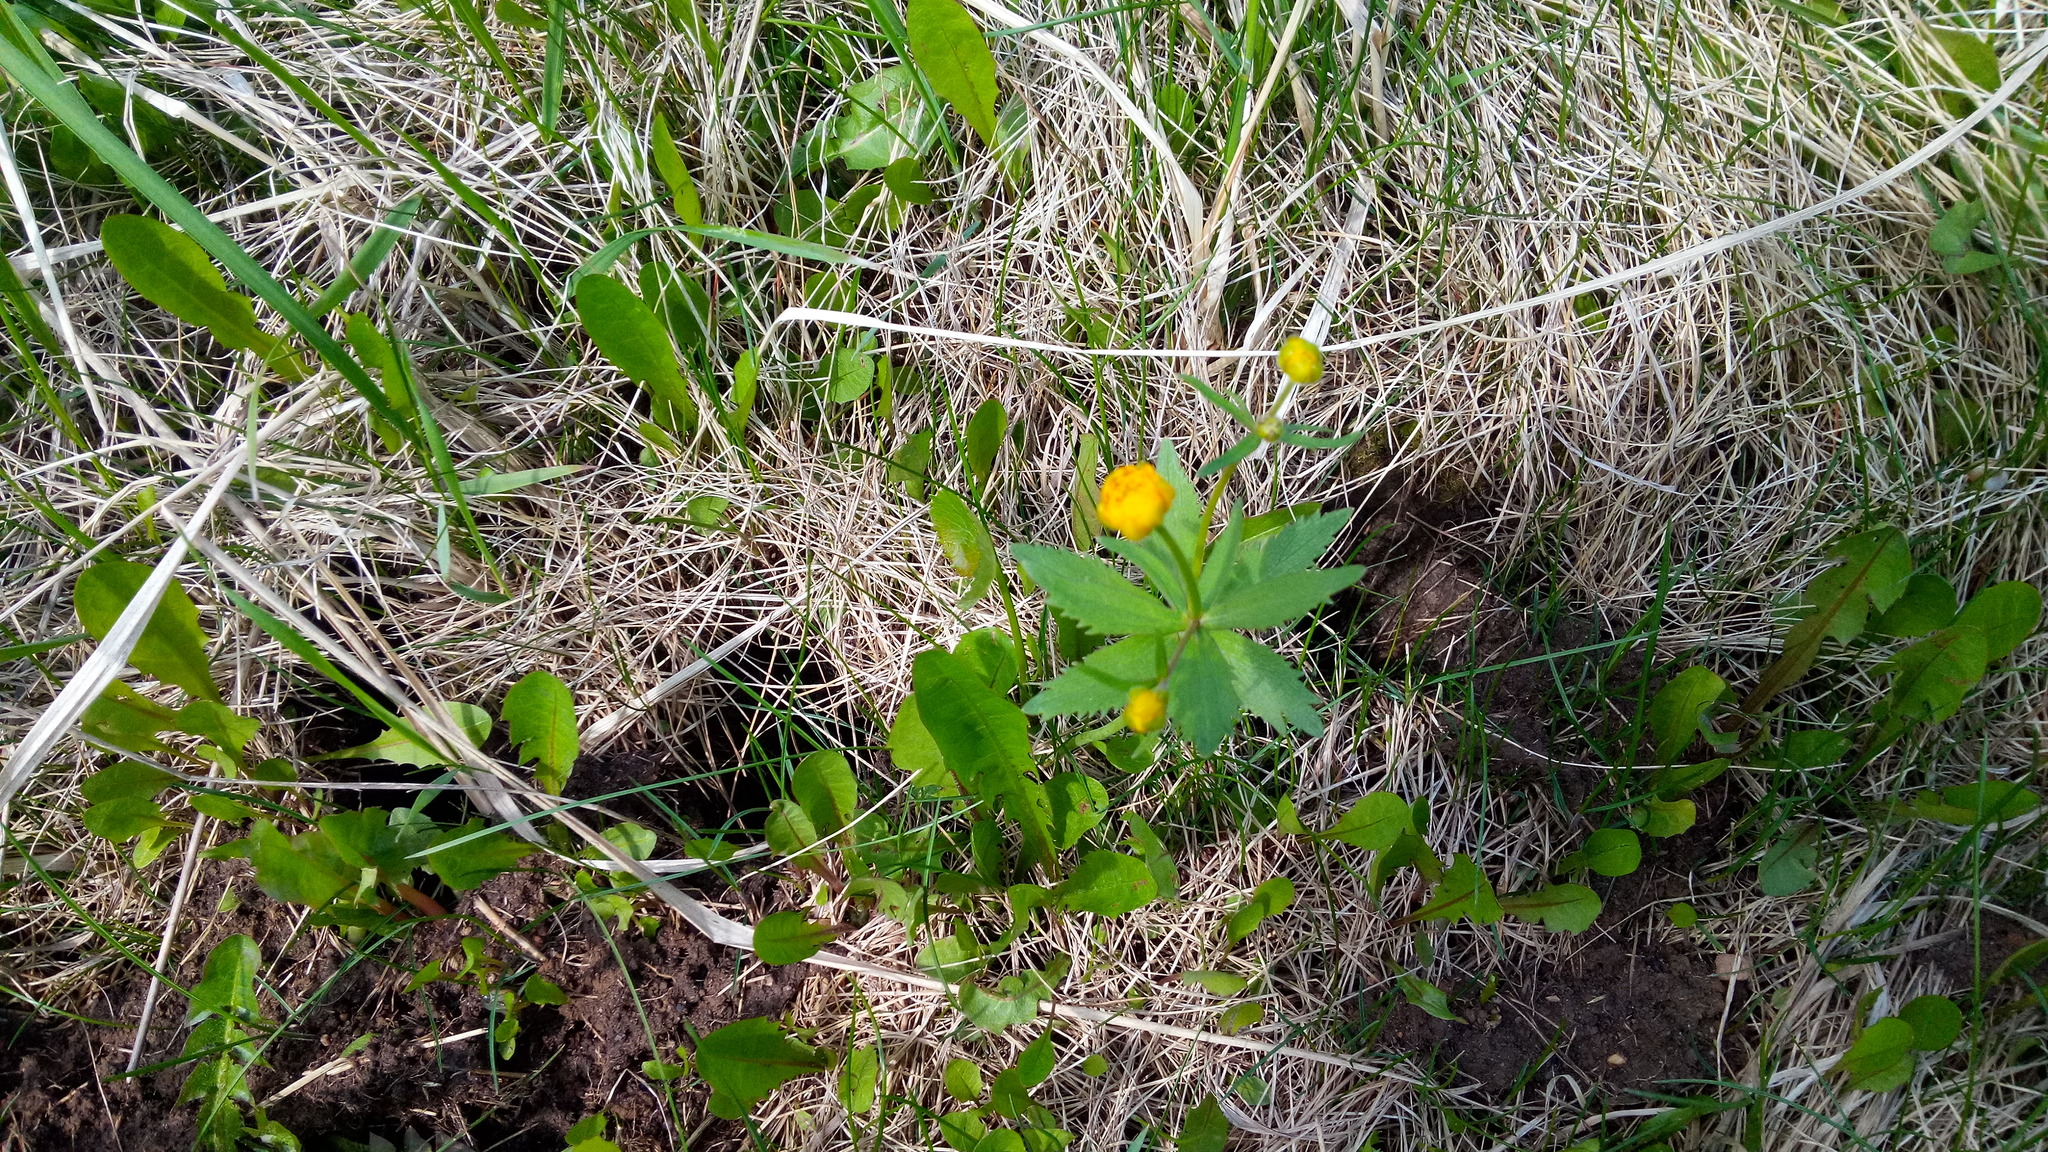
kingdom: Plantae
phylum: Tracheophyta
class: Magnoliopsida
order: Ranunculales
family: Ranunculaceae
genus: Ranunculus
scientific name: Ranunculus cassubicus
